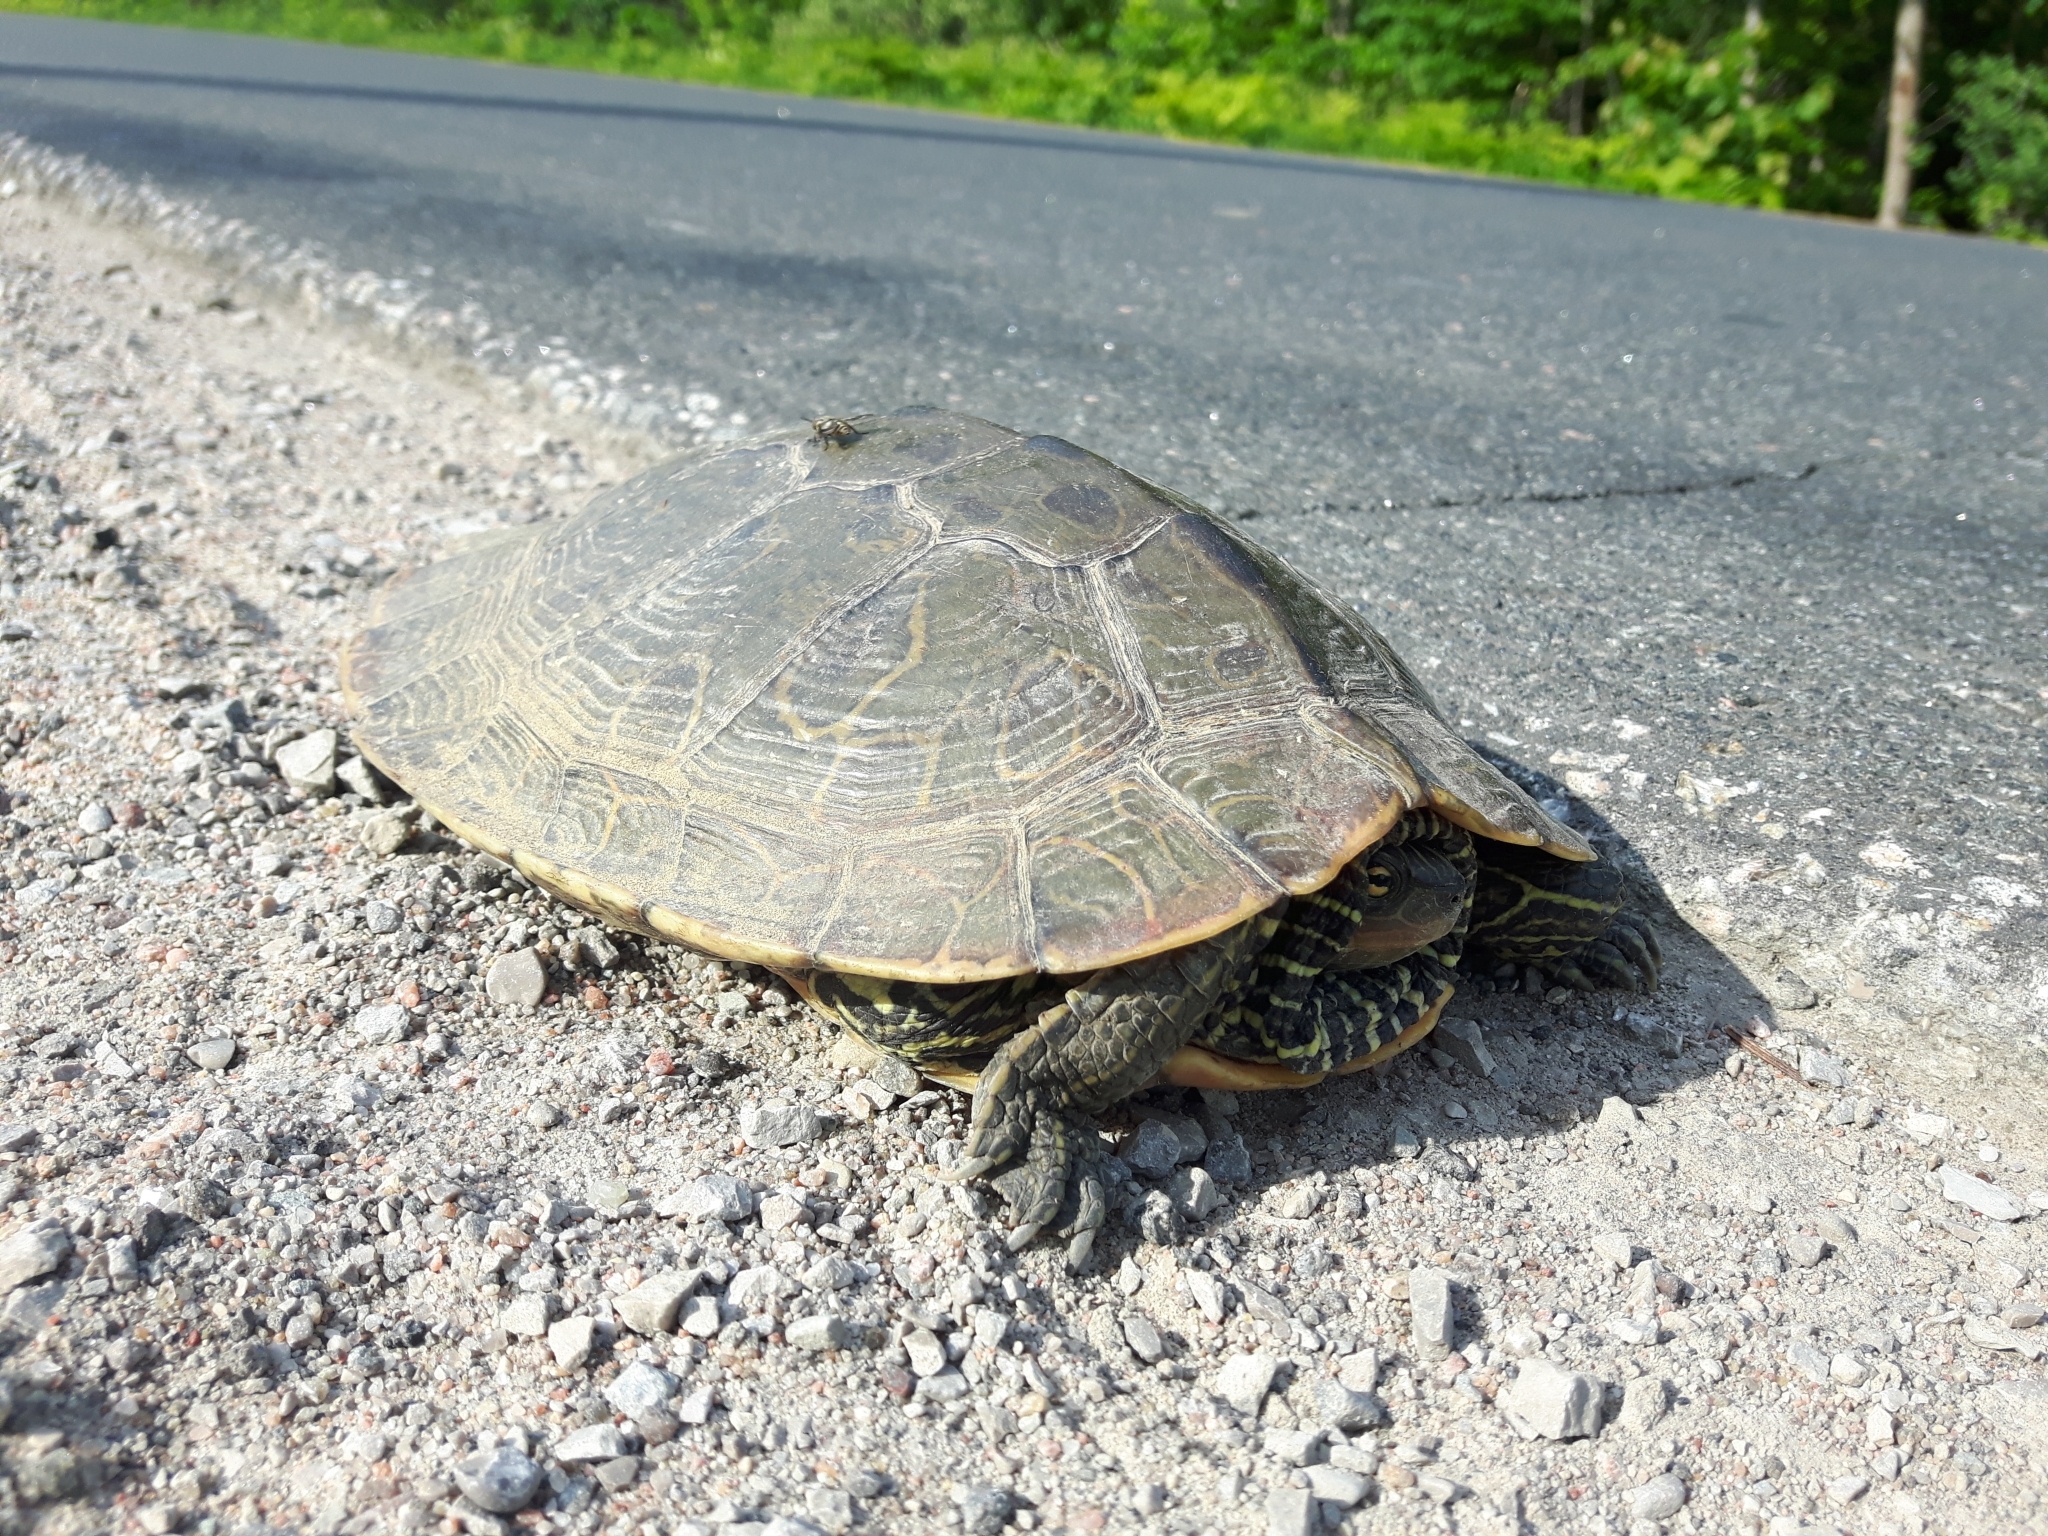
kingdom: Animalia
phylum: Chordata
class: Testudines
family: Emydidae
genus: Graptemys
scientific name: Graptemys geographica
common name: Common map turtle
